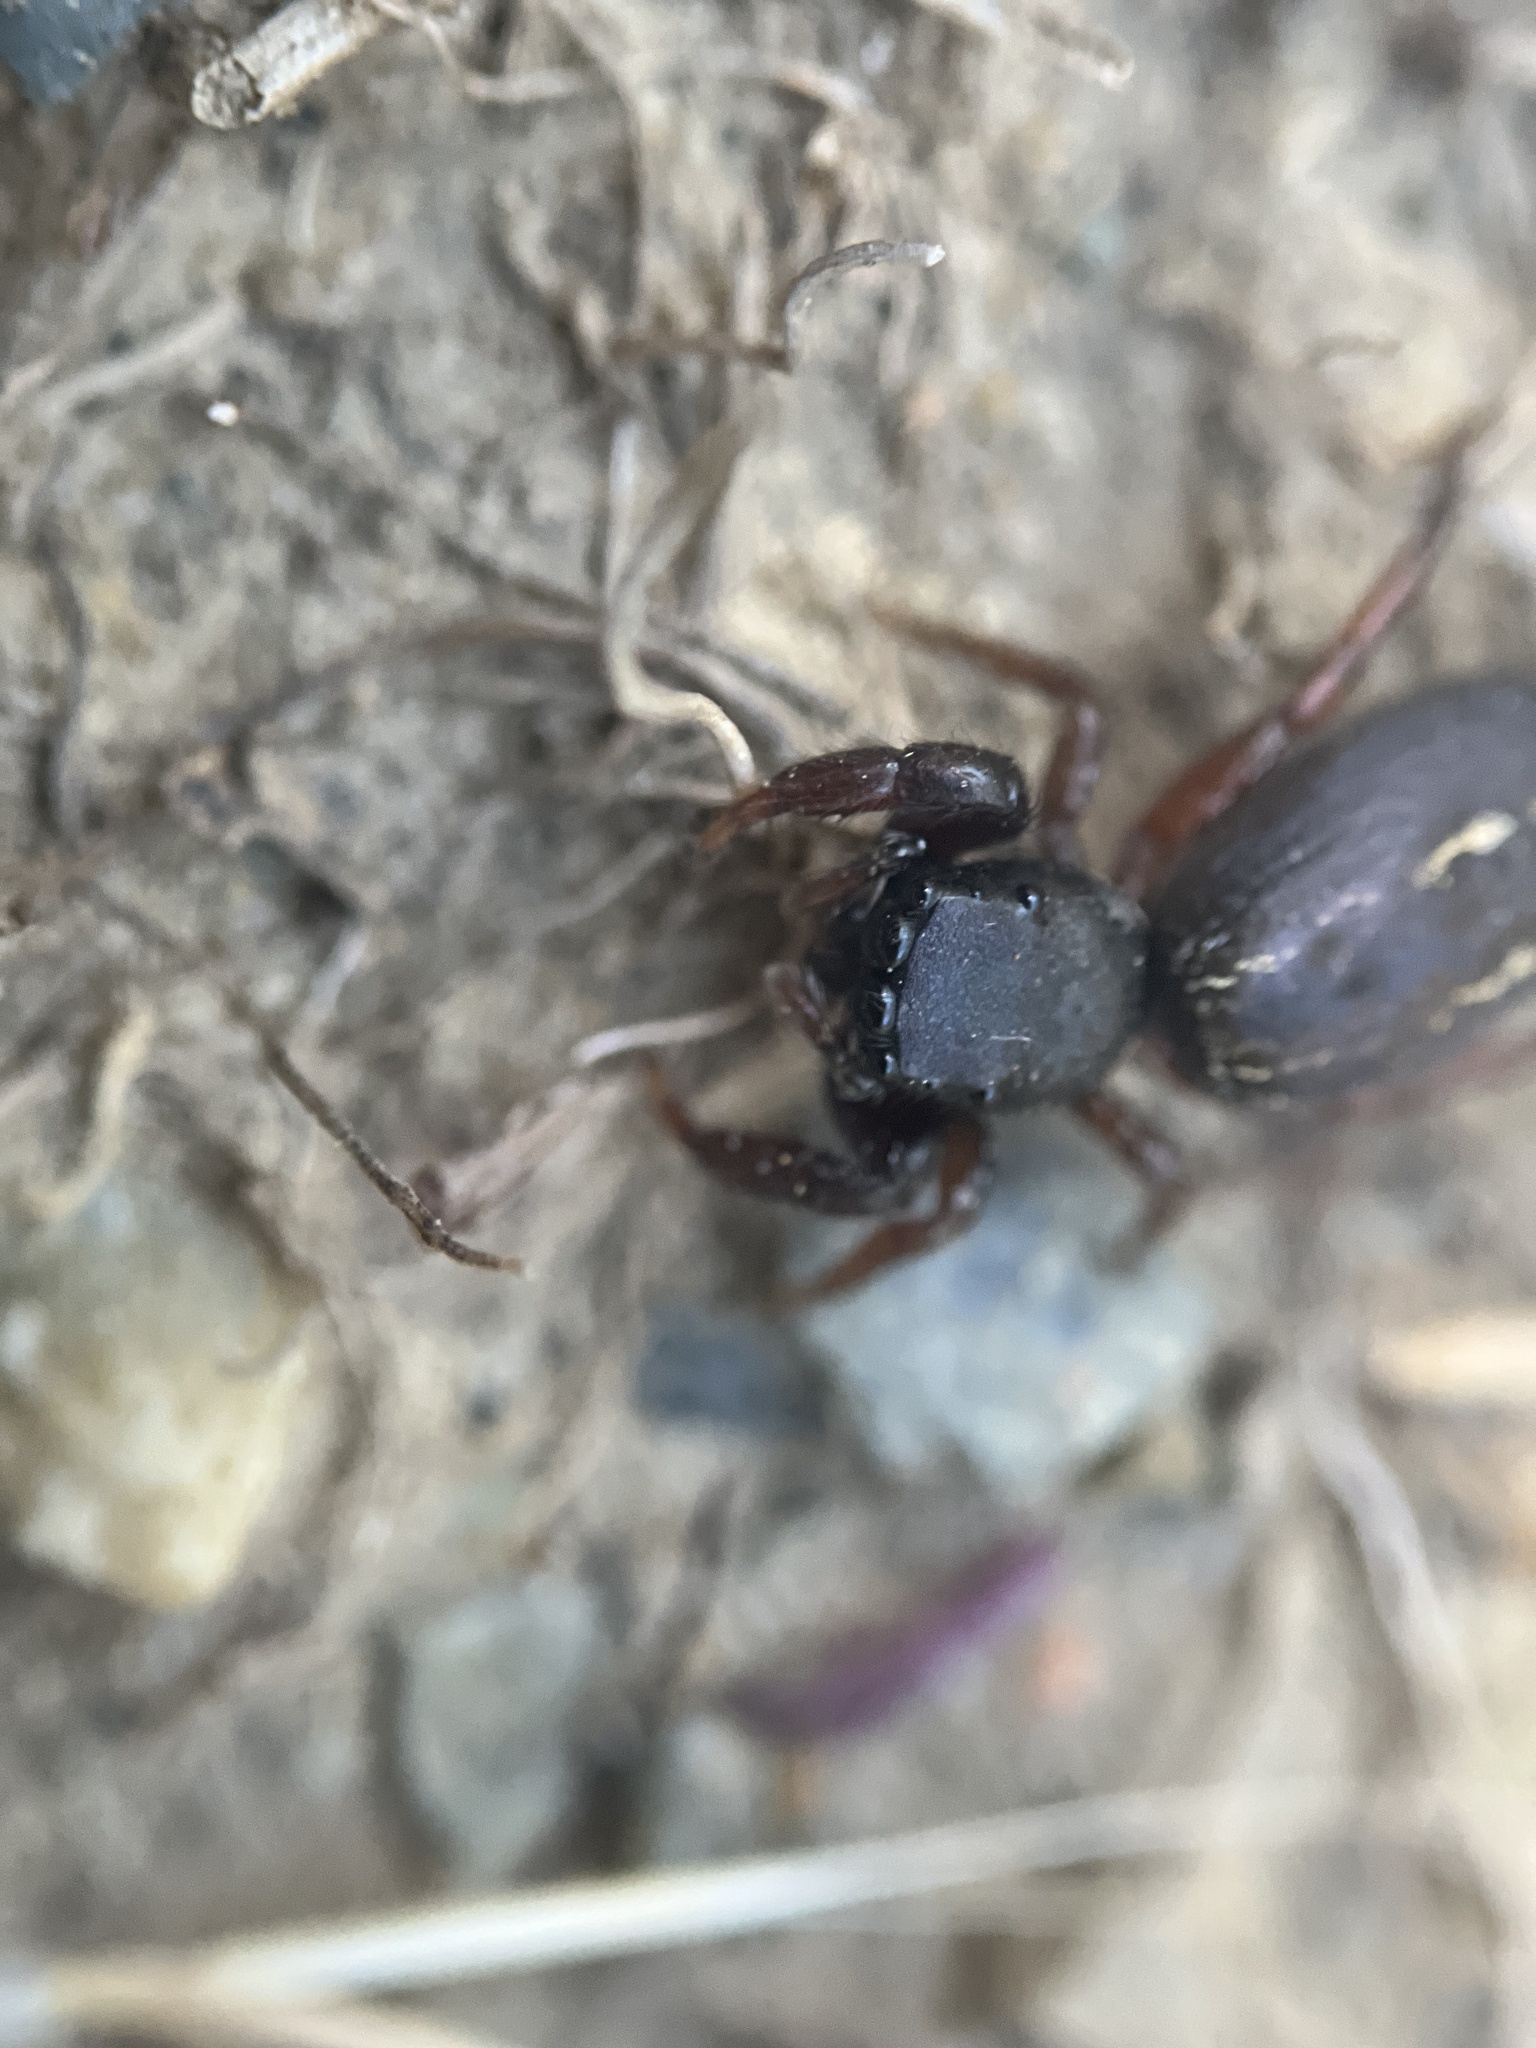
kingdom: Animalia
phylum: Arthropoda
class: Arachnida
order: Araneae
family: Salticidae
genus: Metacyrba
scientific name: Metacyrba taeniola
